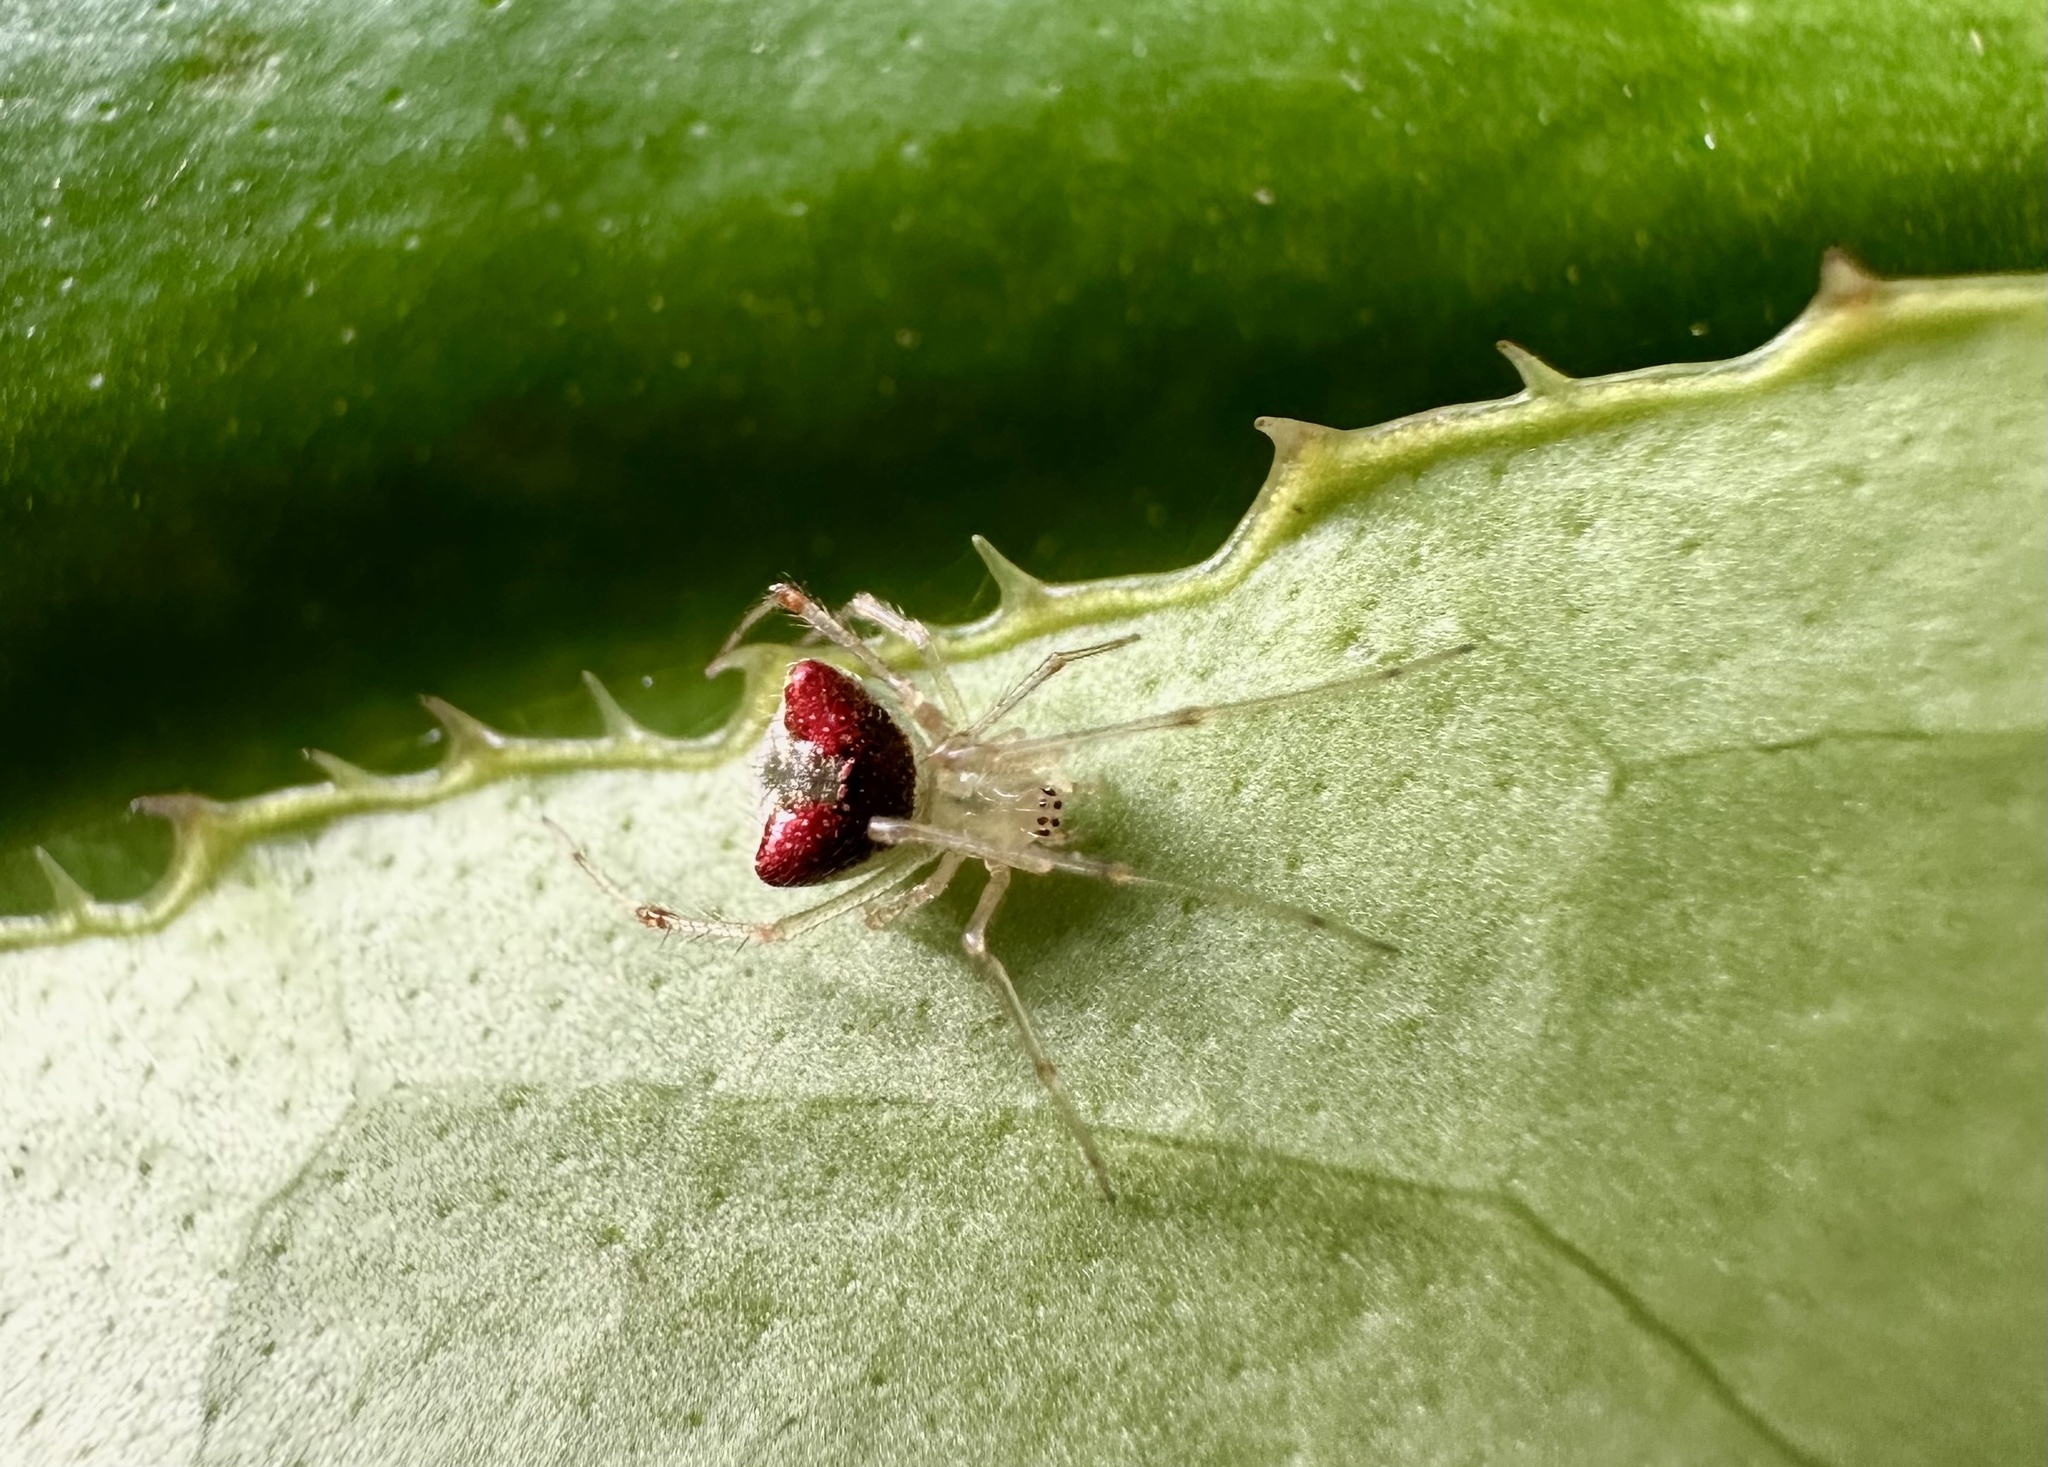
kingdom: Animalia
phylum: Arthropoda
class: Arachnida
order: Araneae
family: Theridiidae
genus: Kochiura
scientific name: Kochiura attrita
